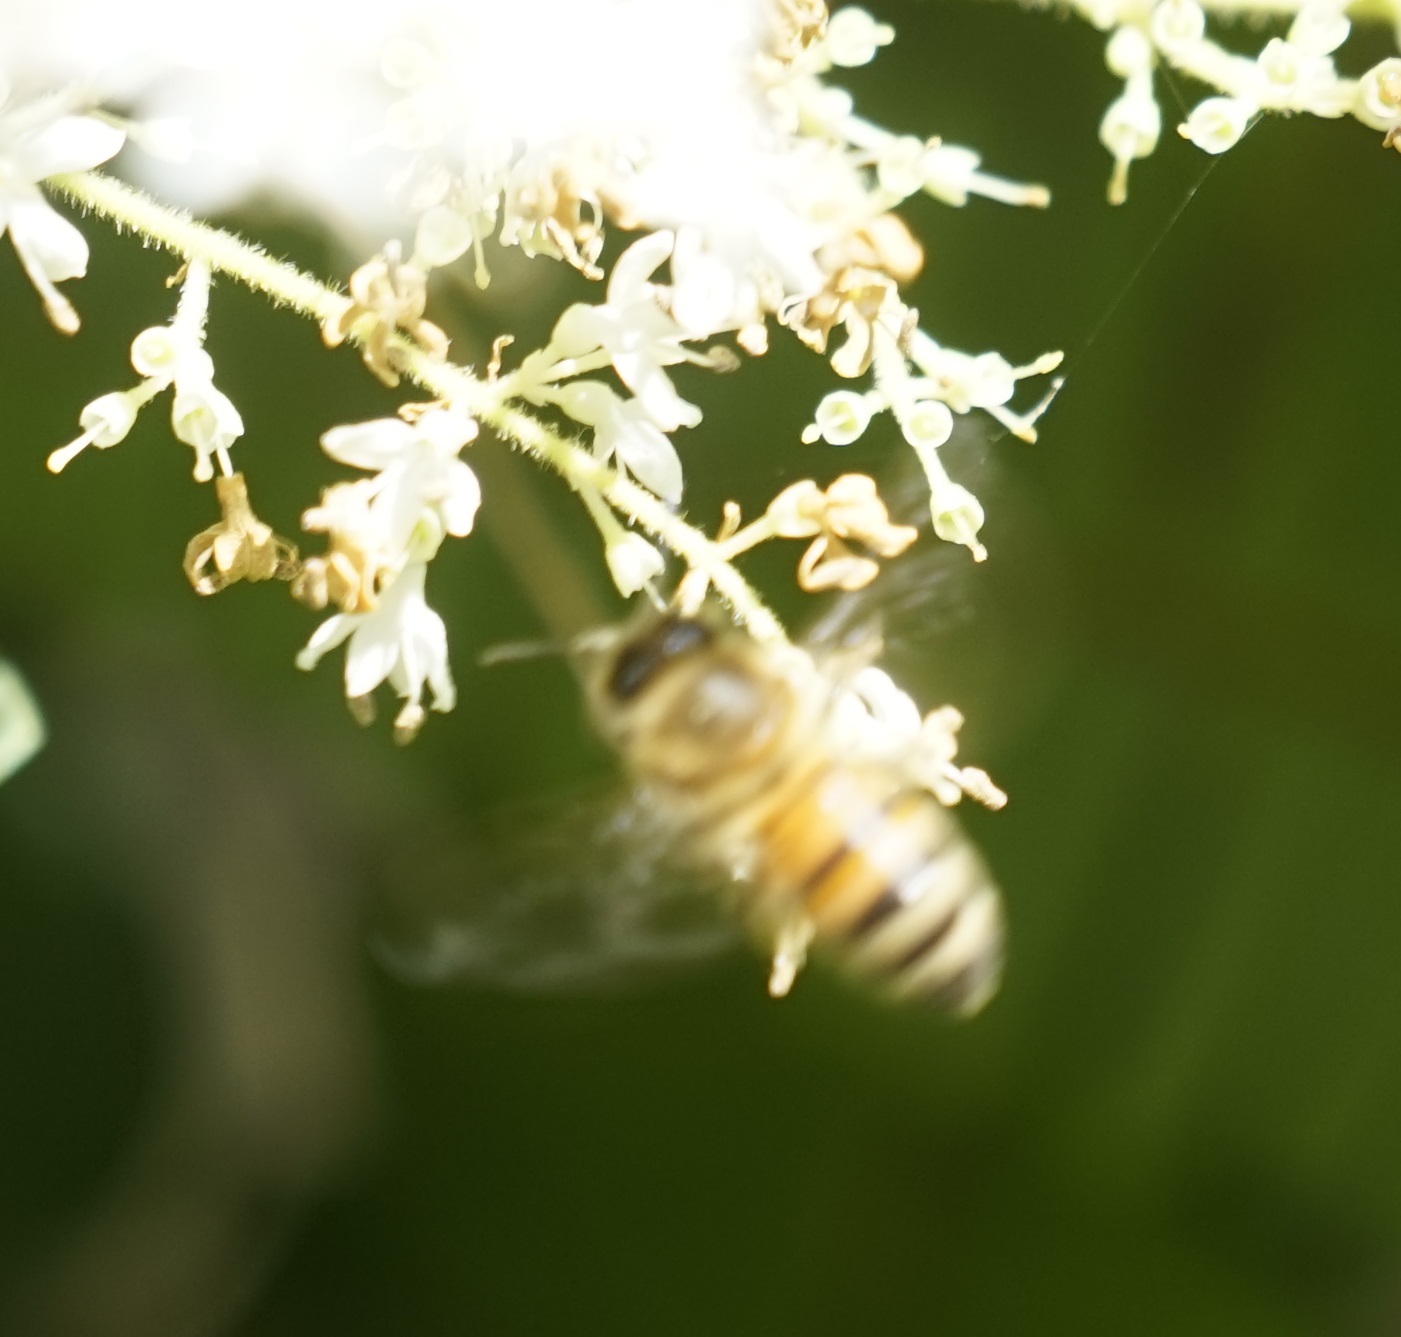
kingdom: Animalia
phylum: Arthropoda
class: Insecta
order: Hymenoptera
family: Apidae
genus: Apis
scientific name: Apis mellifera
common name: Honey bee
